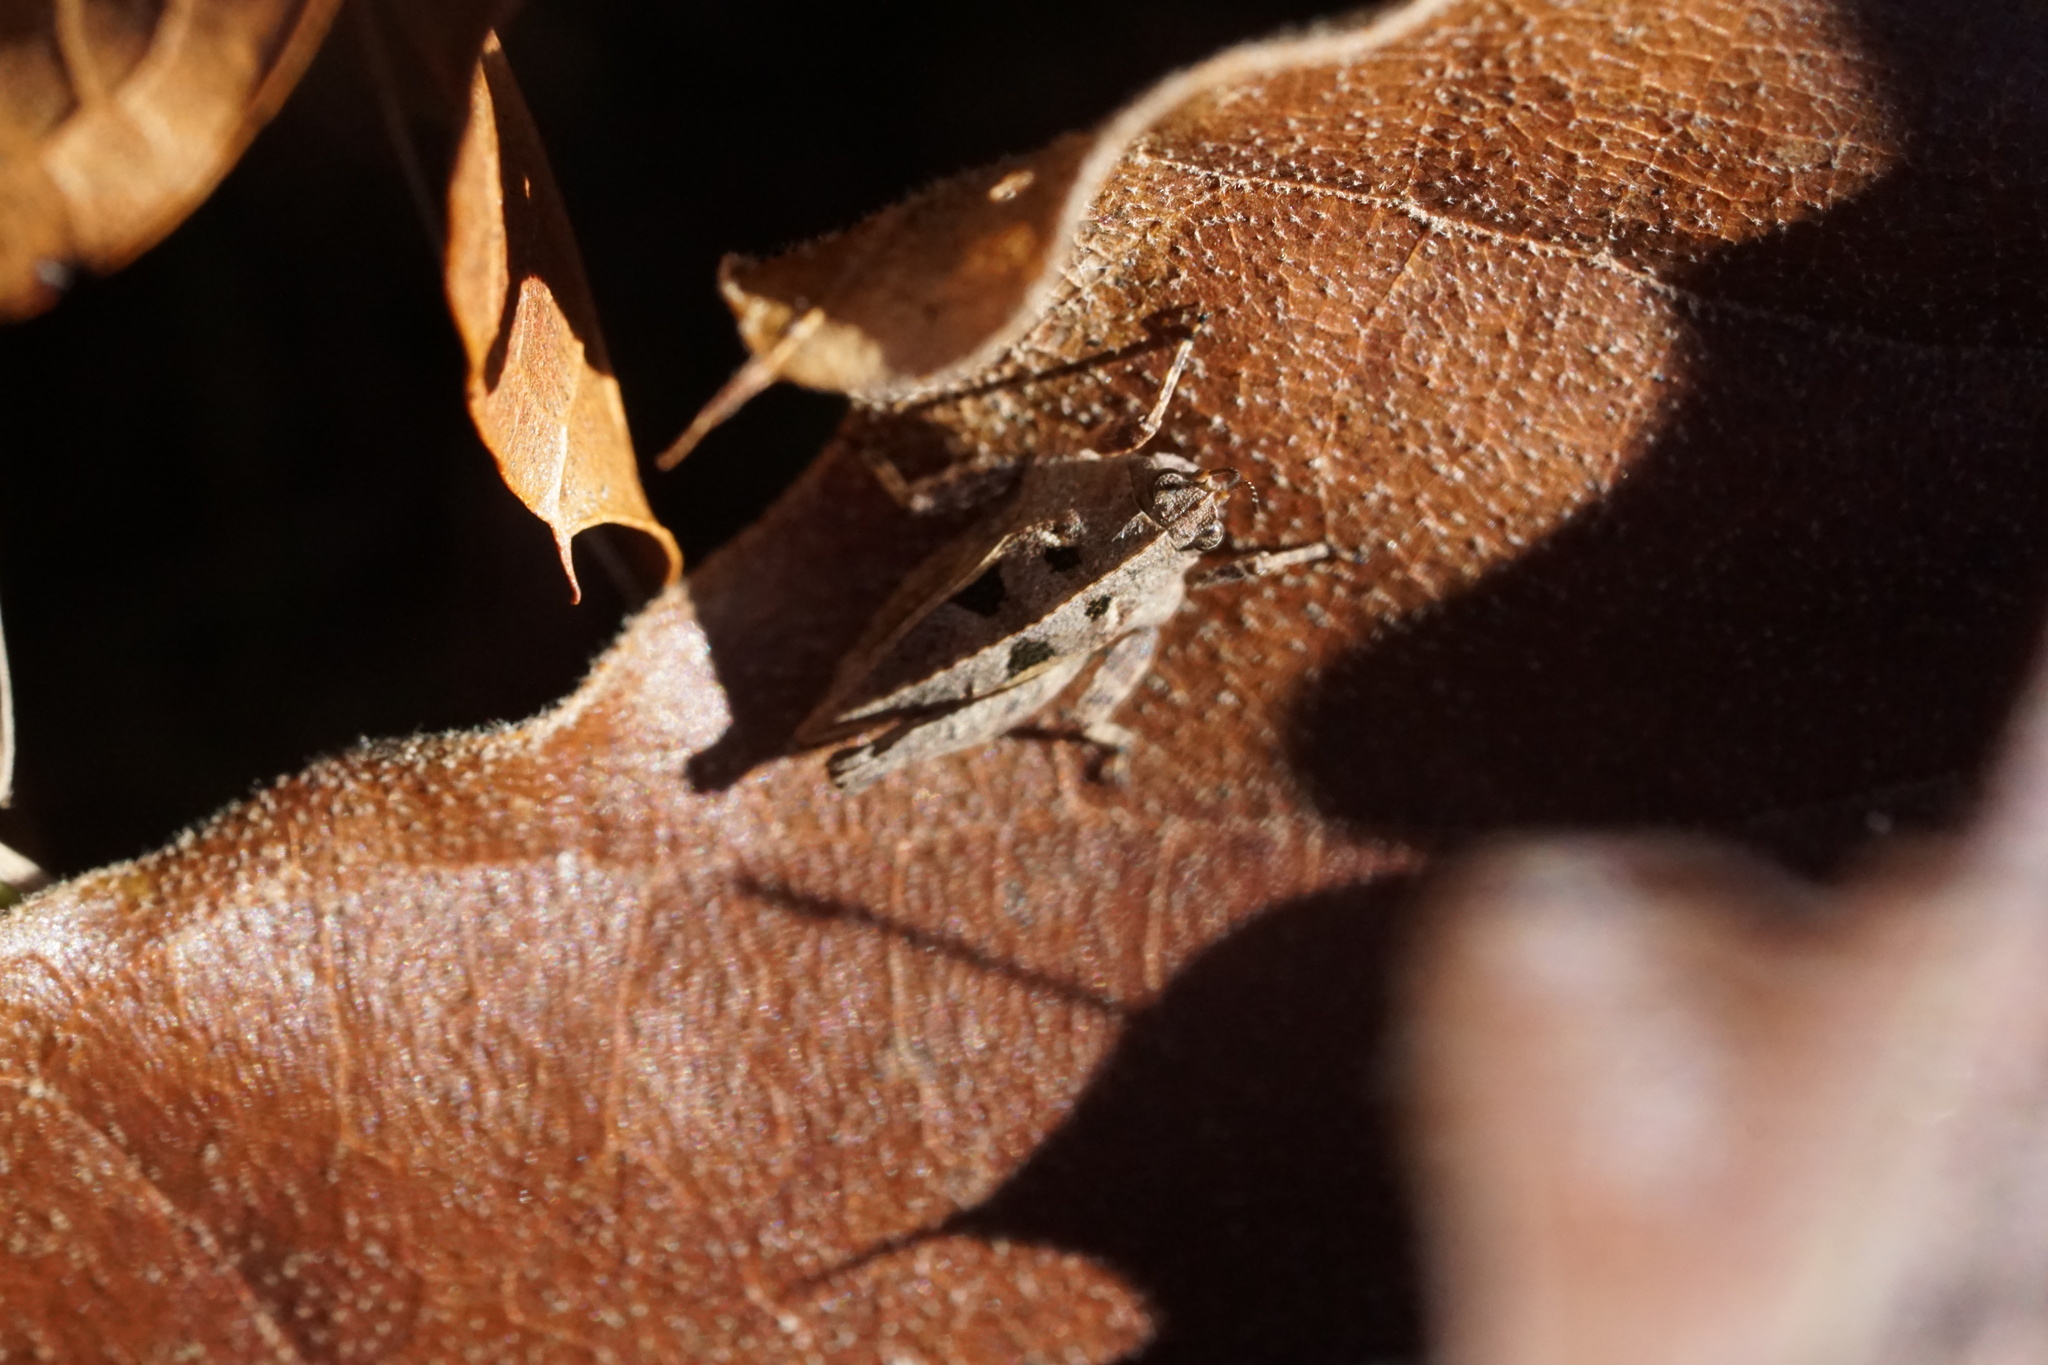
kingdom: Animalia
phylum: Arthropoda
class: Insecta
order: Orthoptera
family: Tetrigidae
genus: Nomotettix
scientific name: Nomotettix cristatus
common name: Crested grouse locust
